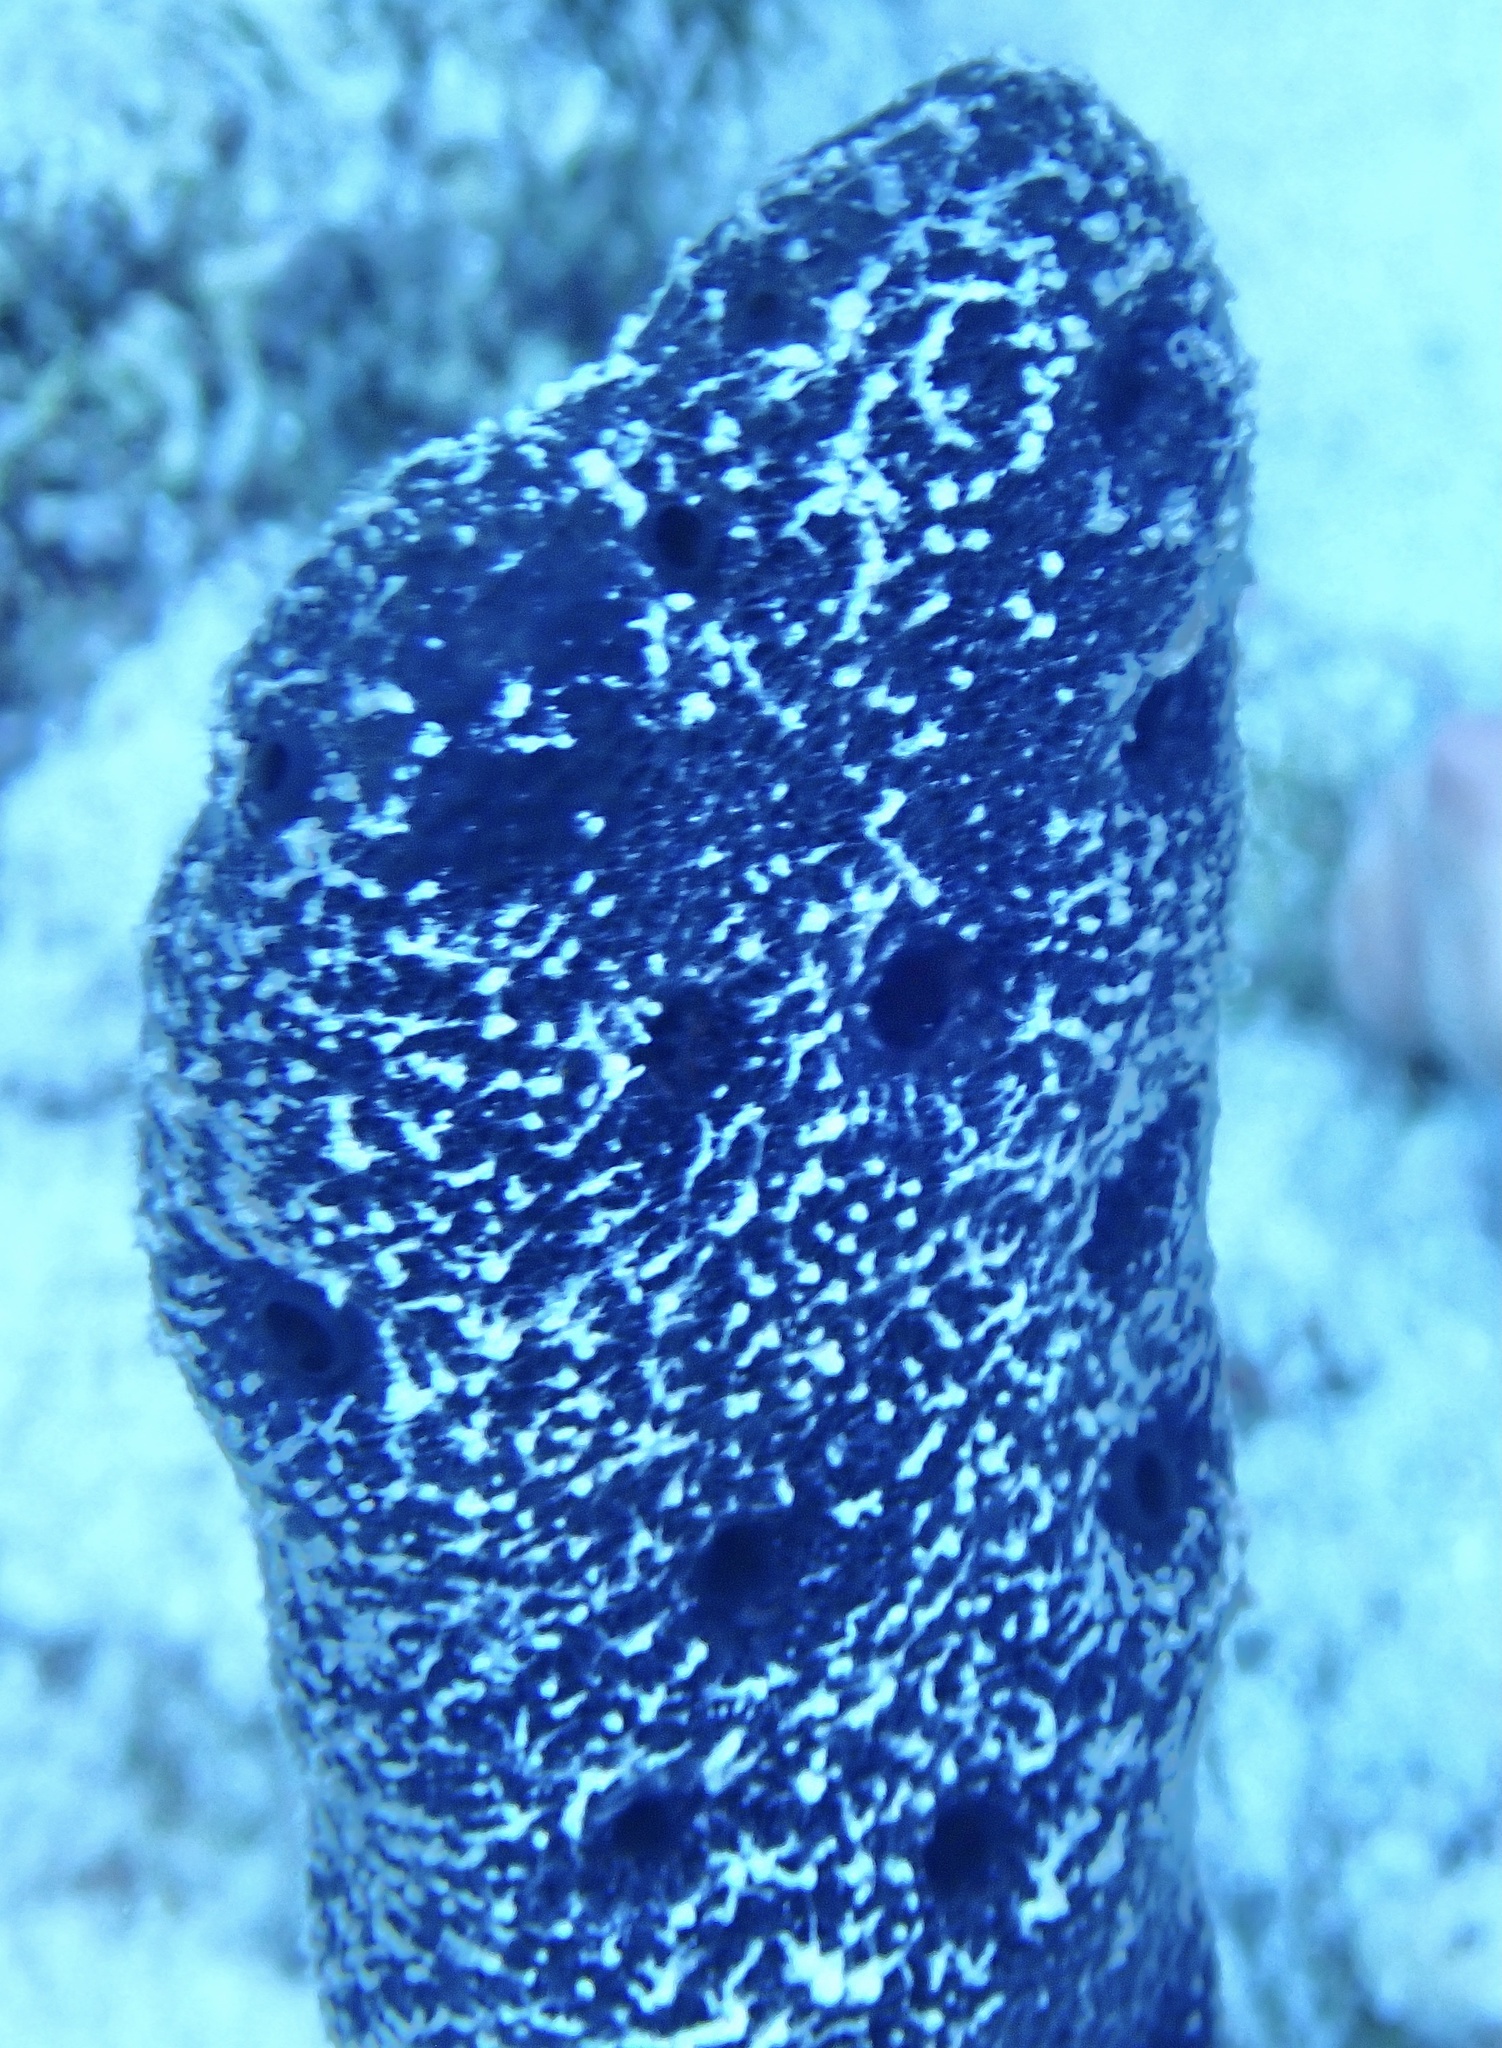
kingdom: Animalia
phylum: Porifera
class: Demospongiae
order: Dictyoceratida
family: Thorectidae
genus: Hyrtios
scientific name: Hyrtios erectus
